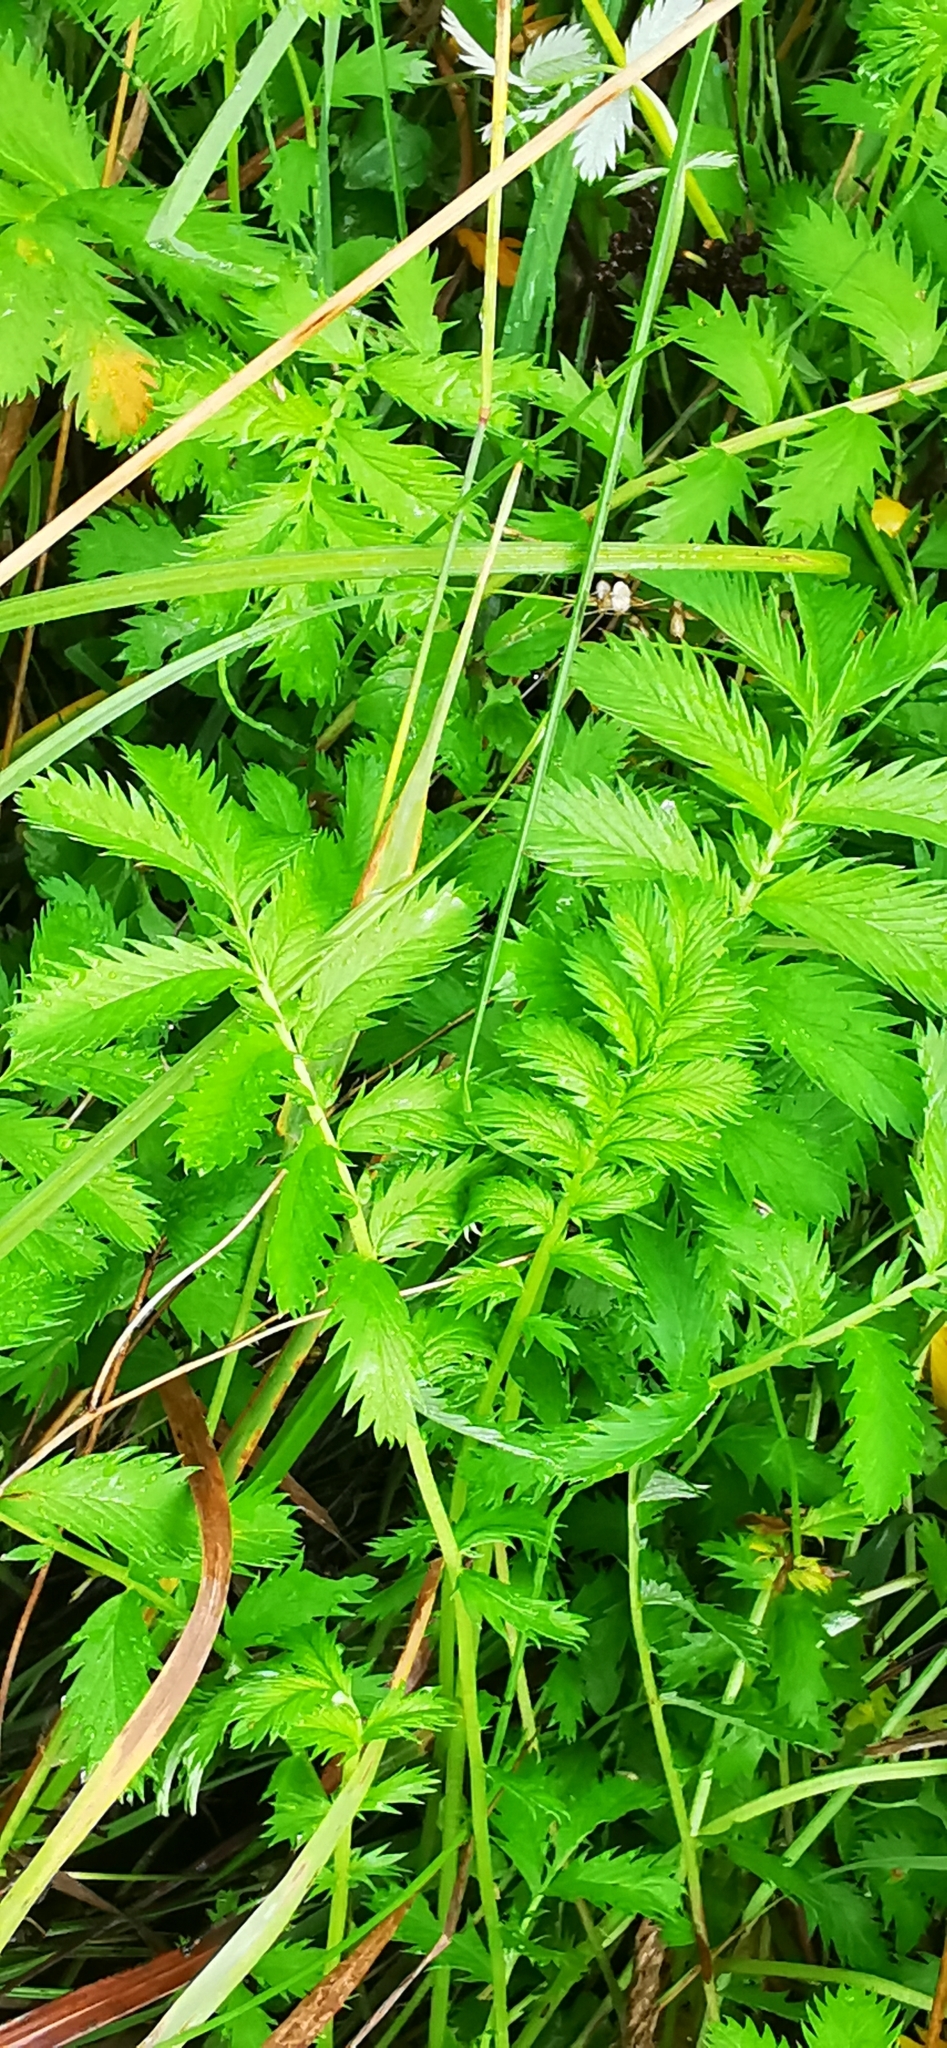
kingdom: Plantae
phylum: Tracheophyta
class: Magnoliopsida
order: Rosales
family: Rosaceae
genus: Argentina
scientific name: Argentina anserina
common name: Common silverweed
